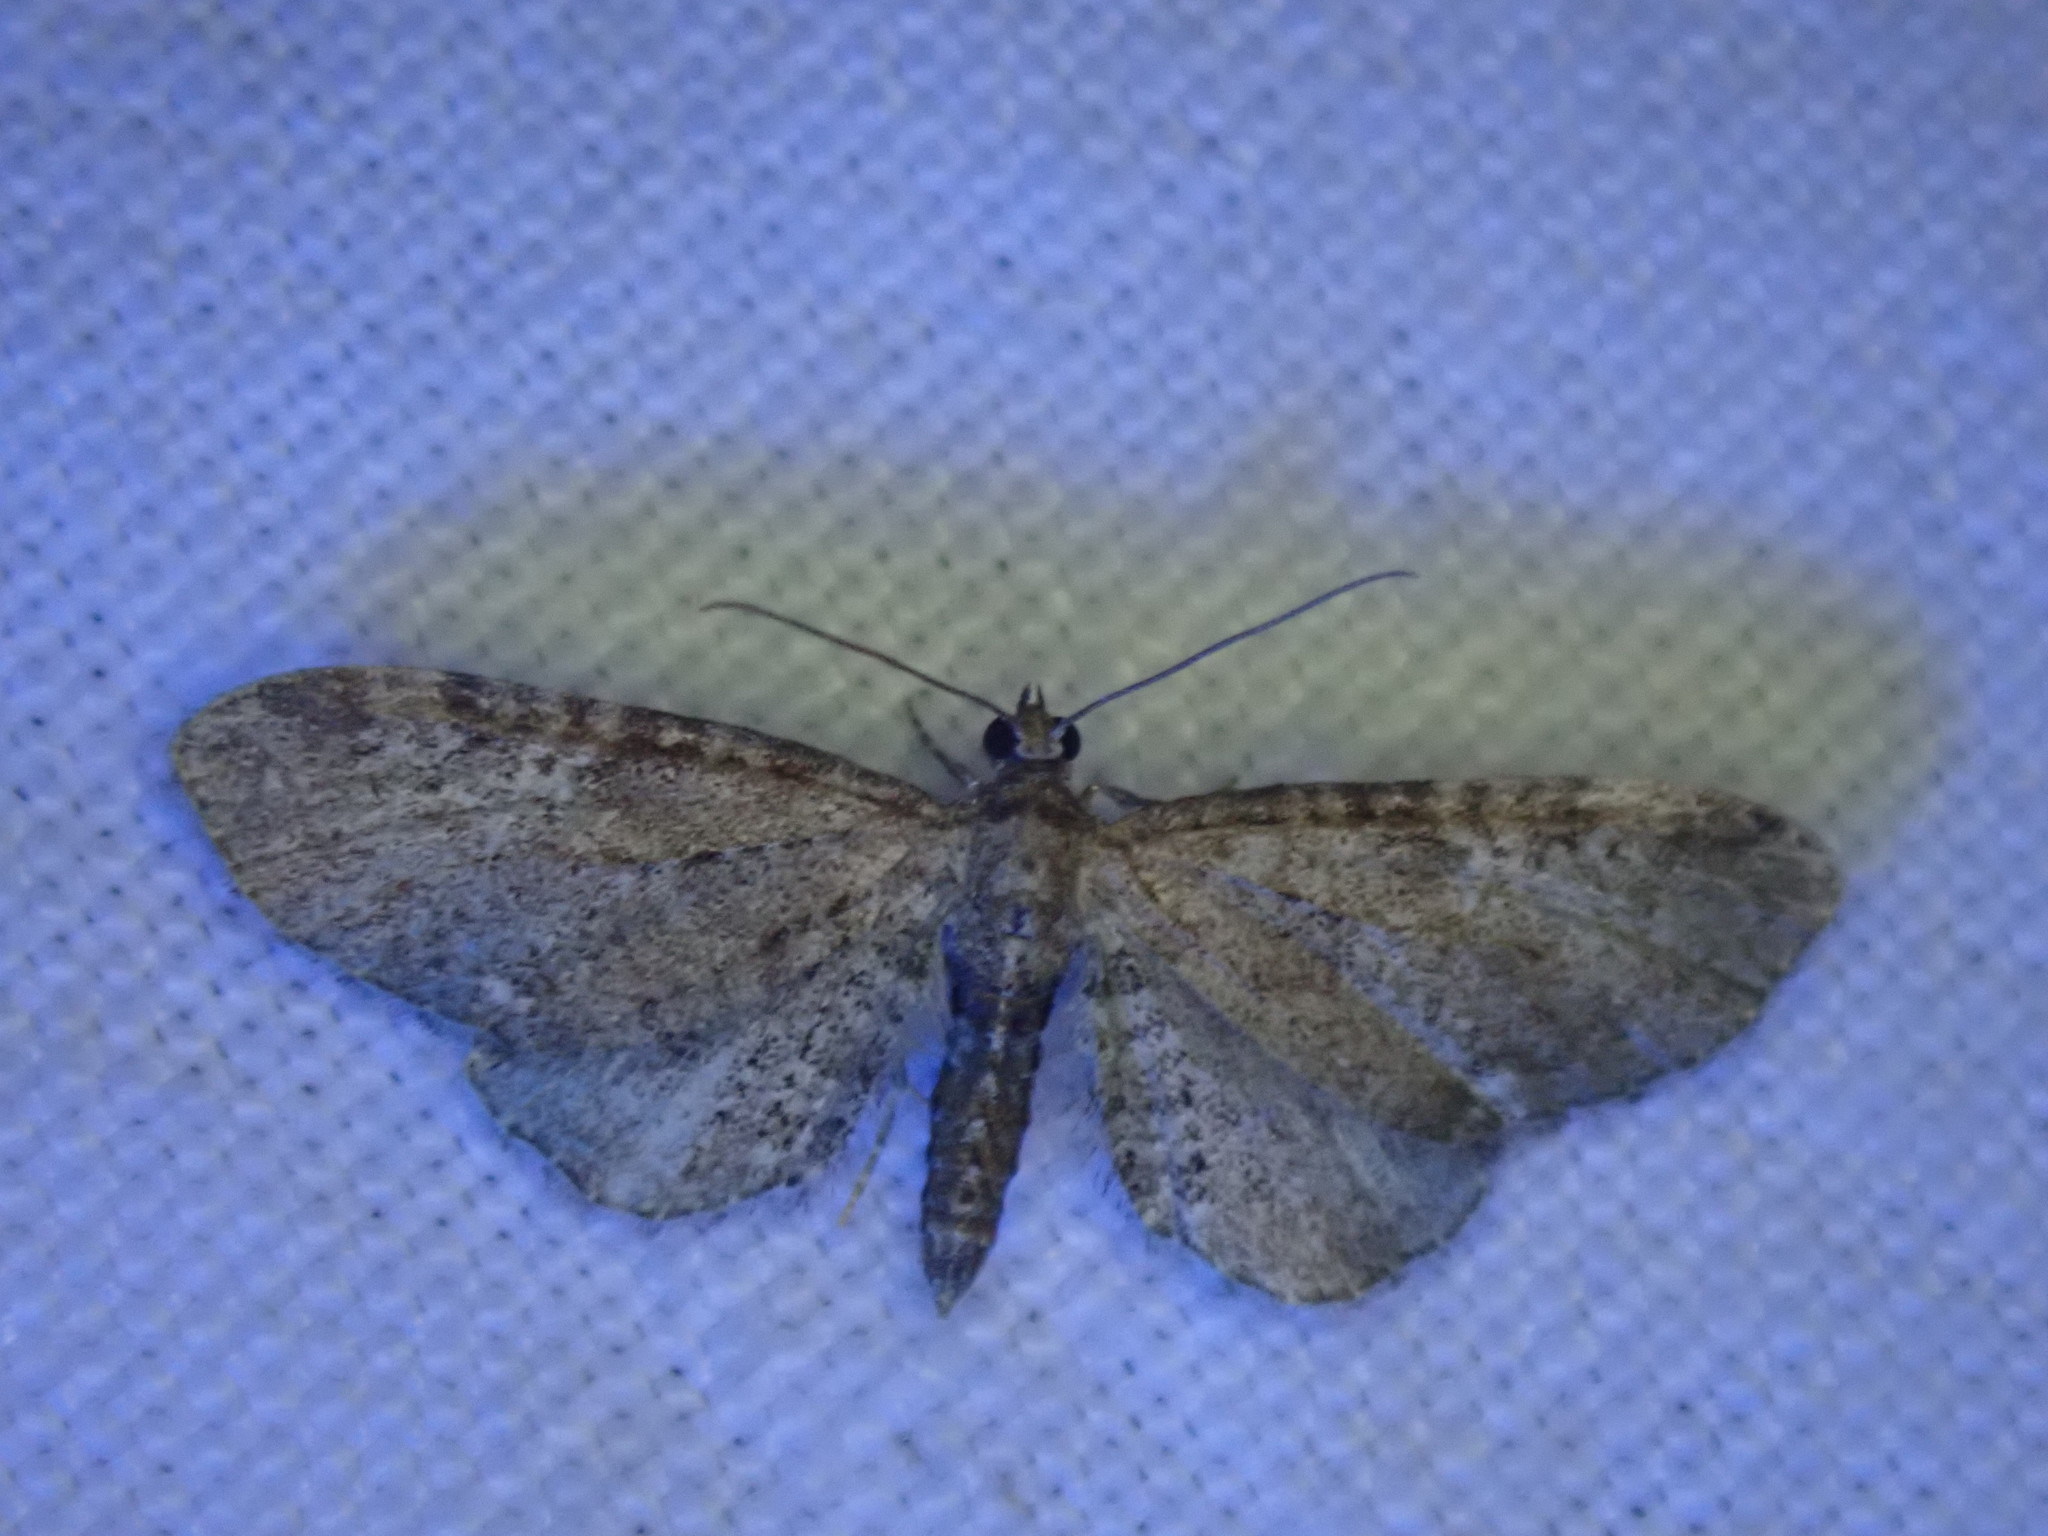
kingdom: Animalia
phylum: Arthropoda
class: Insecta
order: Lepidoptera
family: Geometridae
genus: Eupithecia
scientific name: Eupithecia vulgata
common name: Common pug
